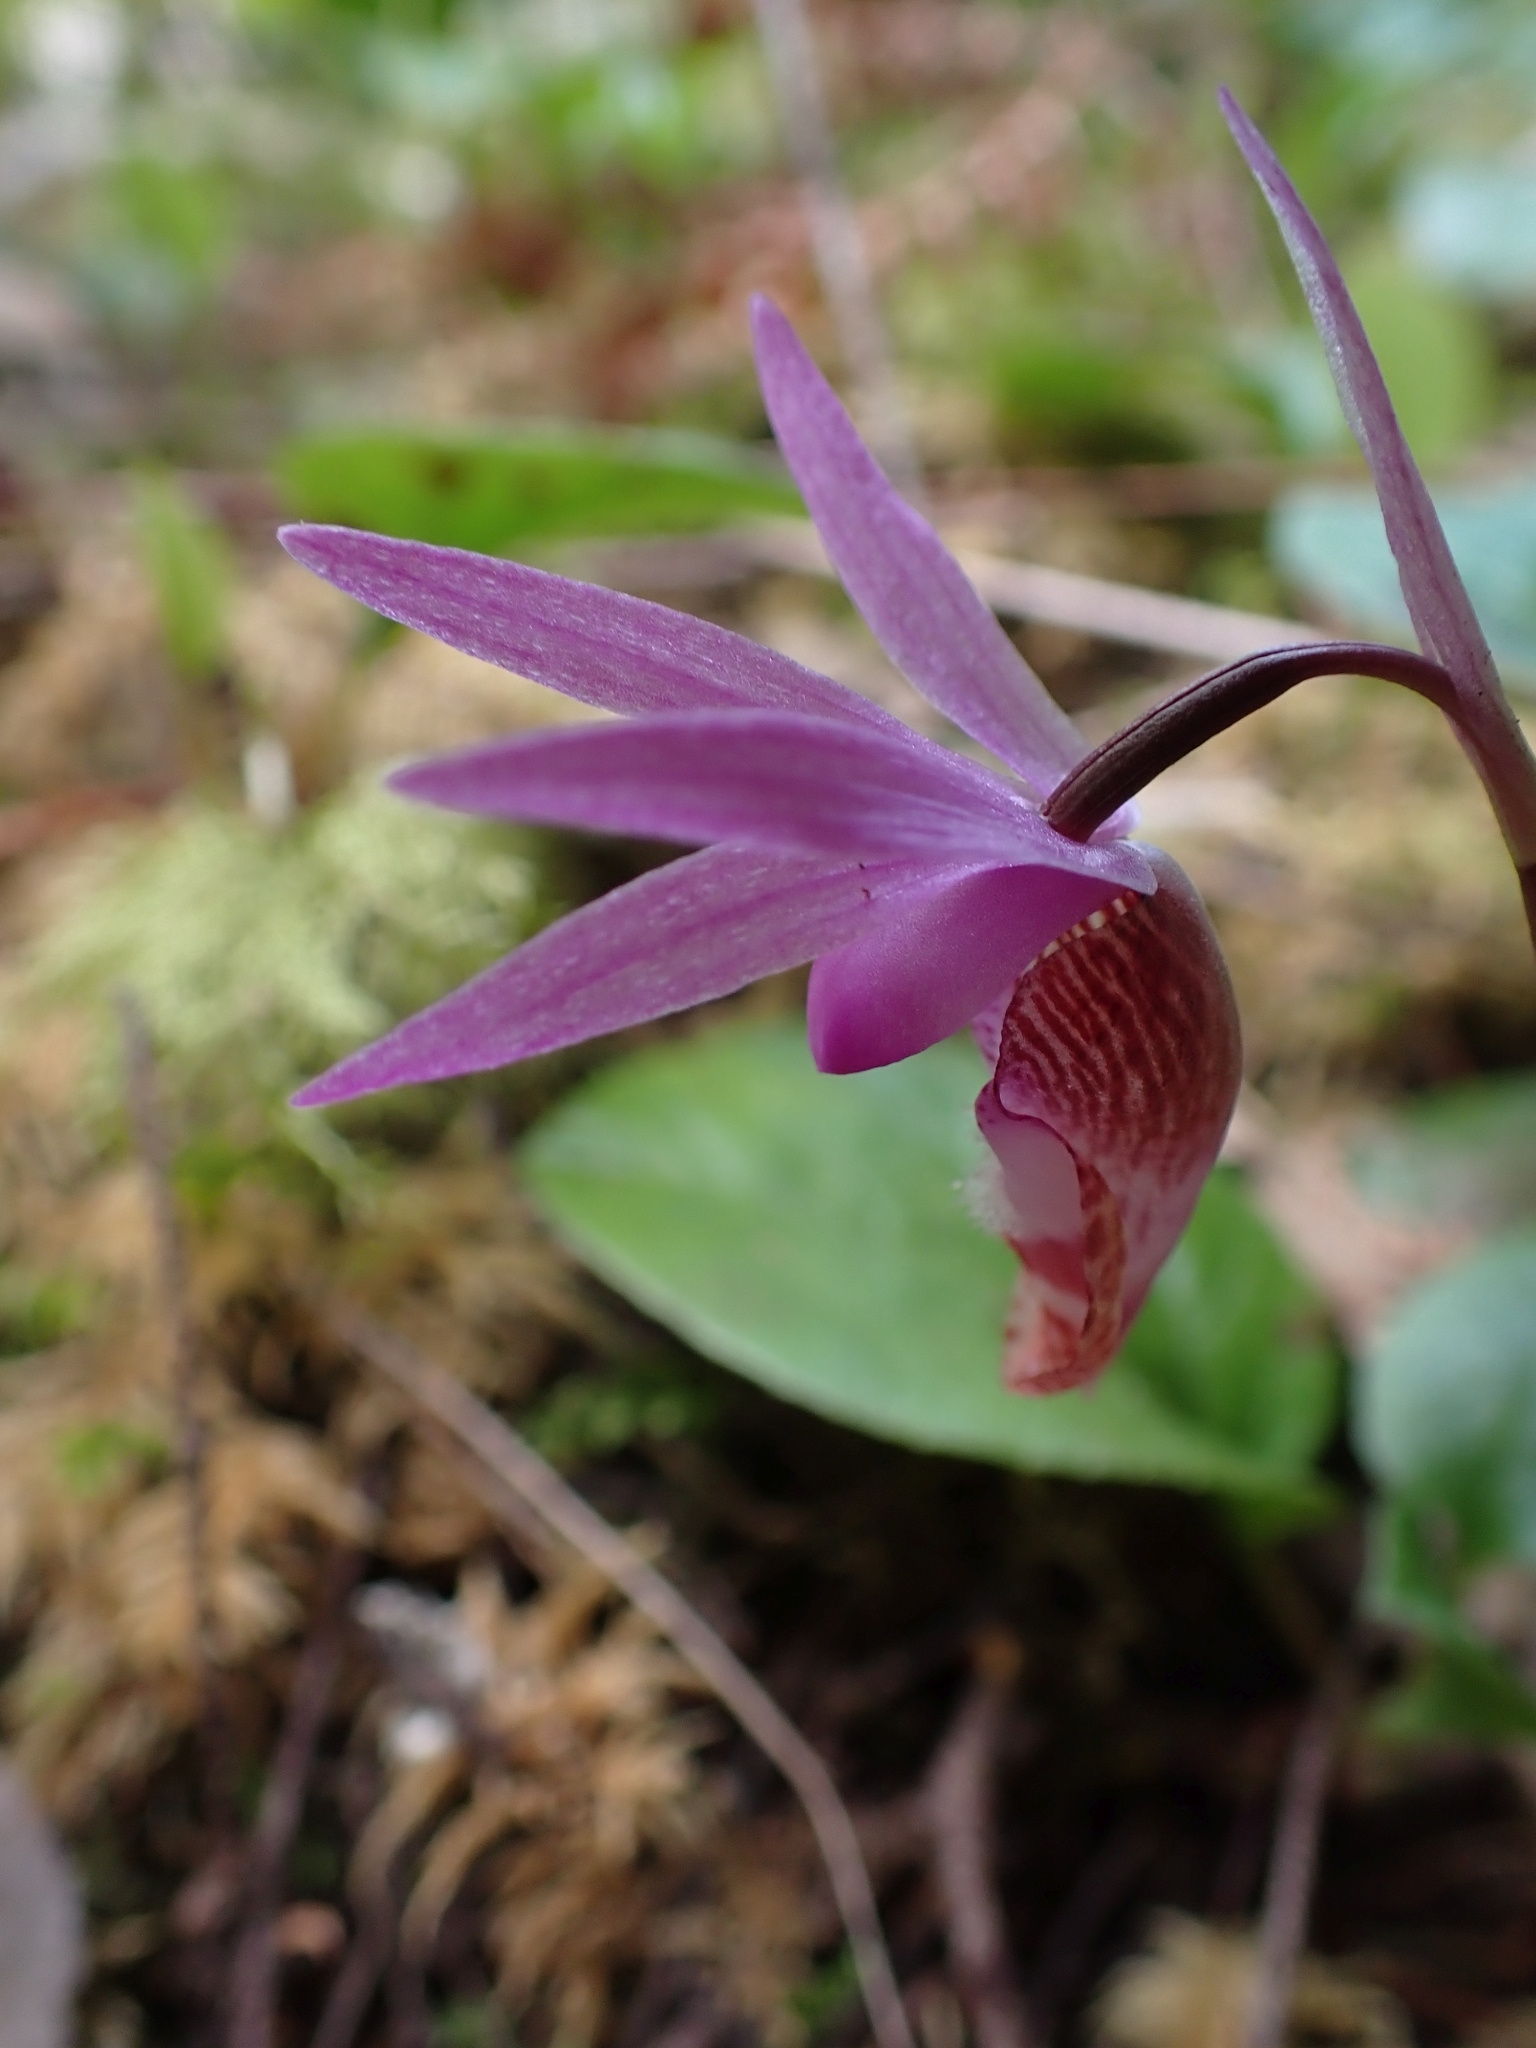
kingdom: Plantae
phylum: Tracheophyta
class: Liliopsida
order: Asparagales
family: Orchidaceae
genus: Calypso
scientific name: Calypso bulbosa
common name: Calypso
